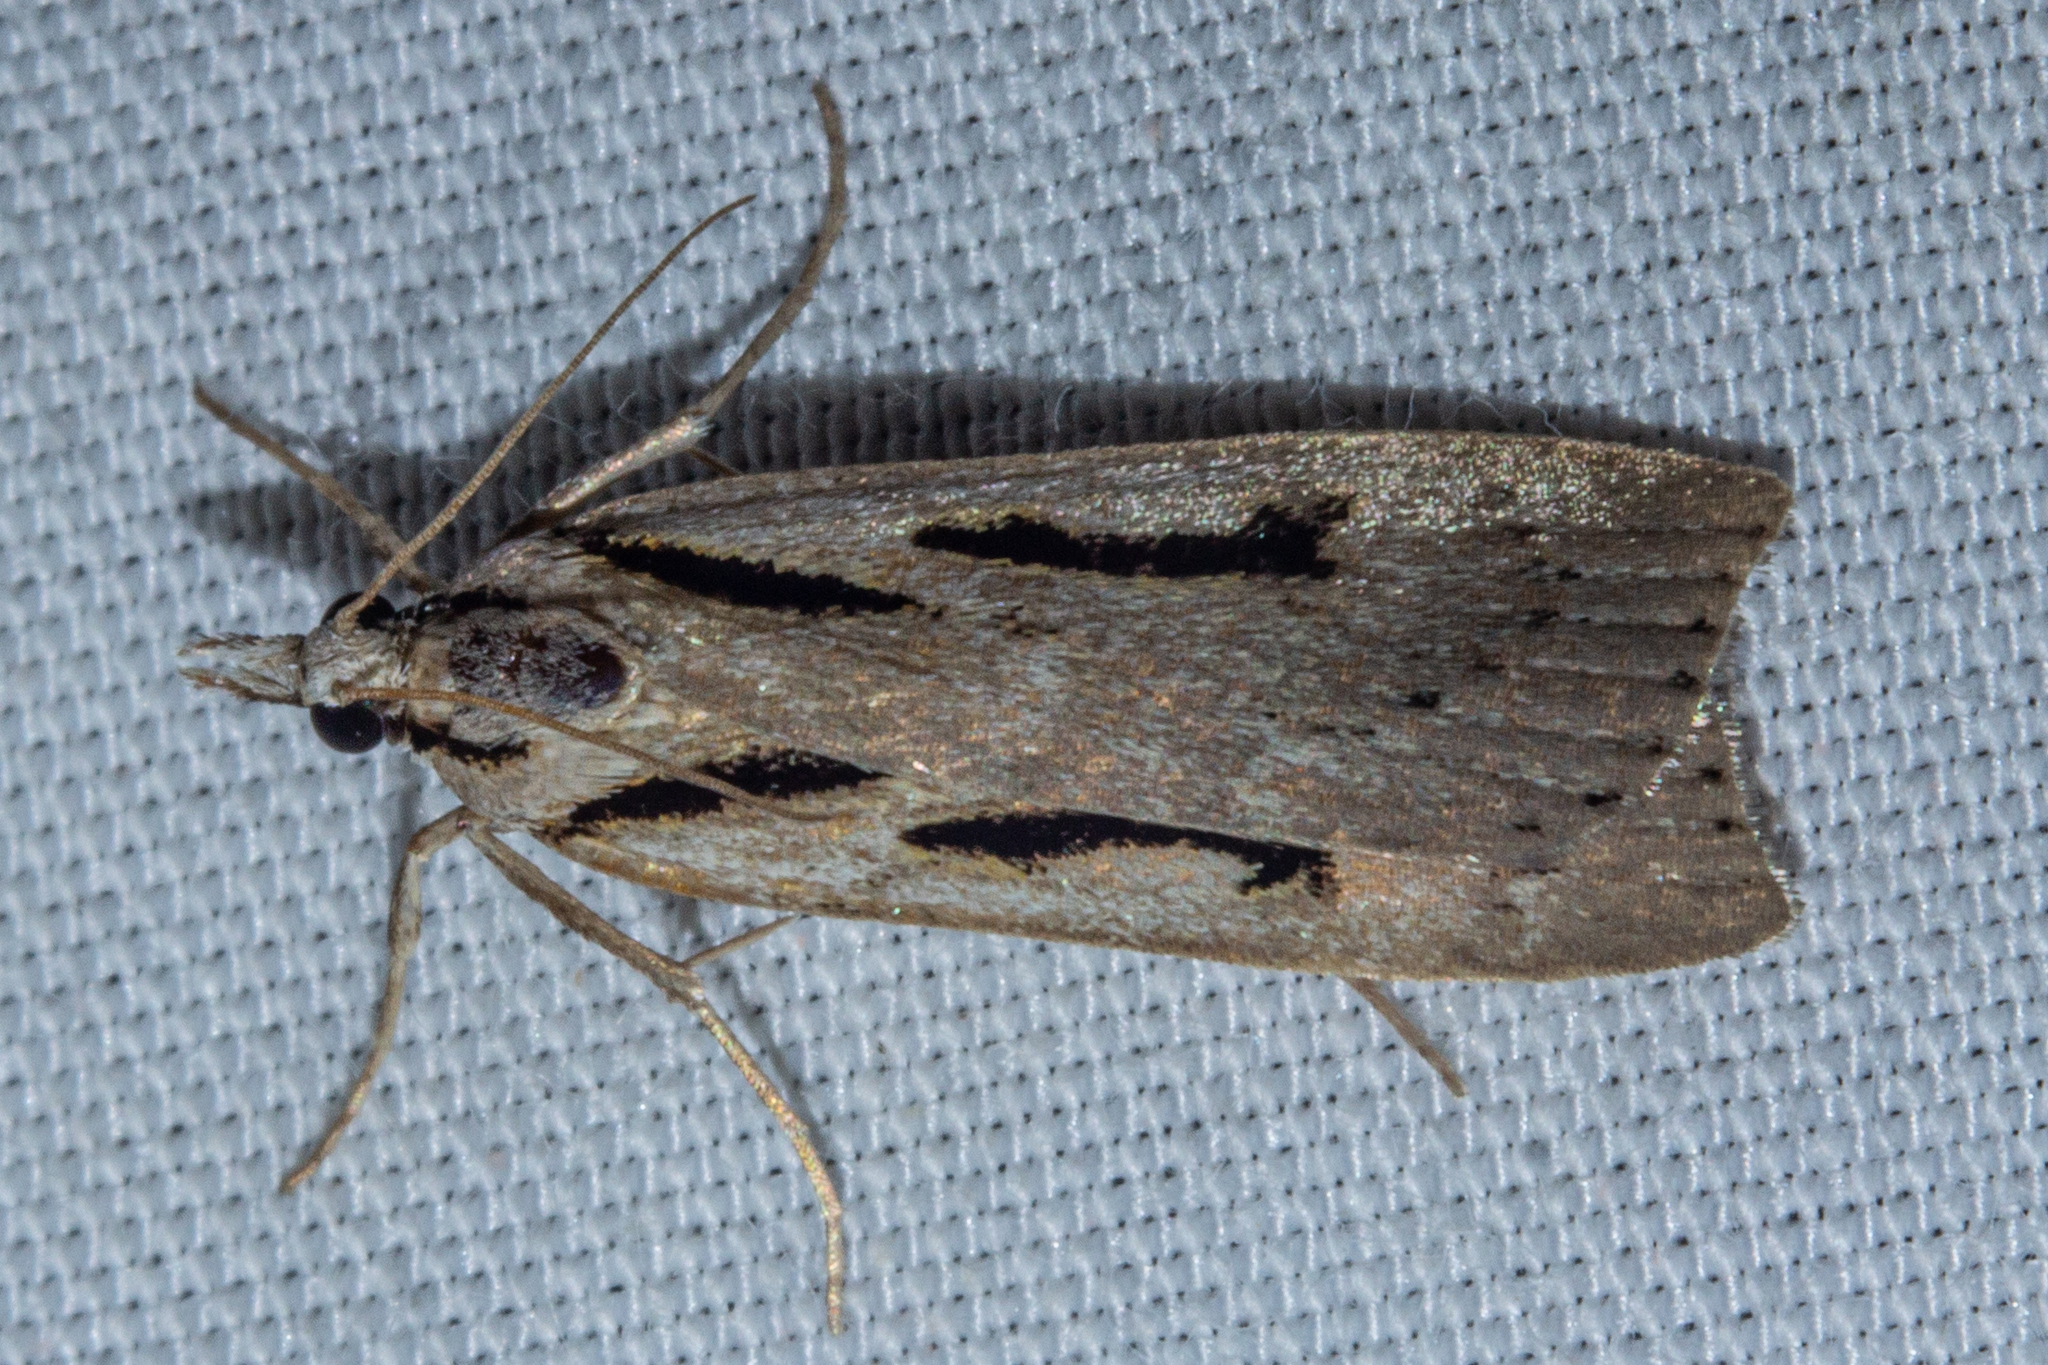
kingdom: Animalia
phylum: Arthropoda
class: Insecta
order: Lepidoptera
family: Crambidae
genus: Scoparia
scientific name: Scoparia rotuellus
